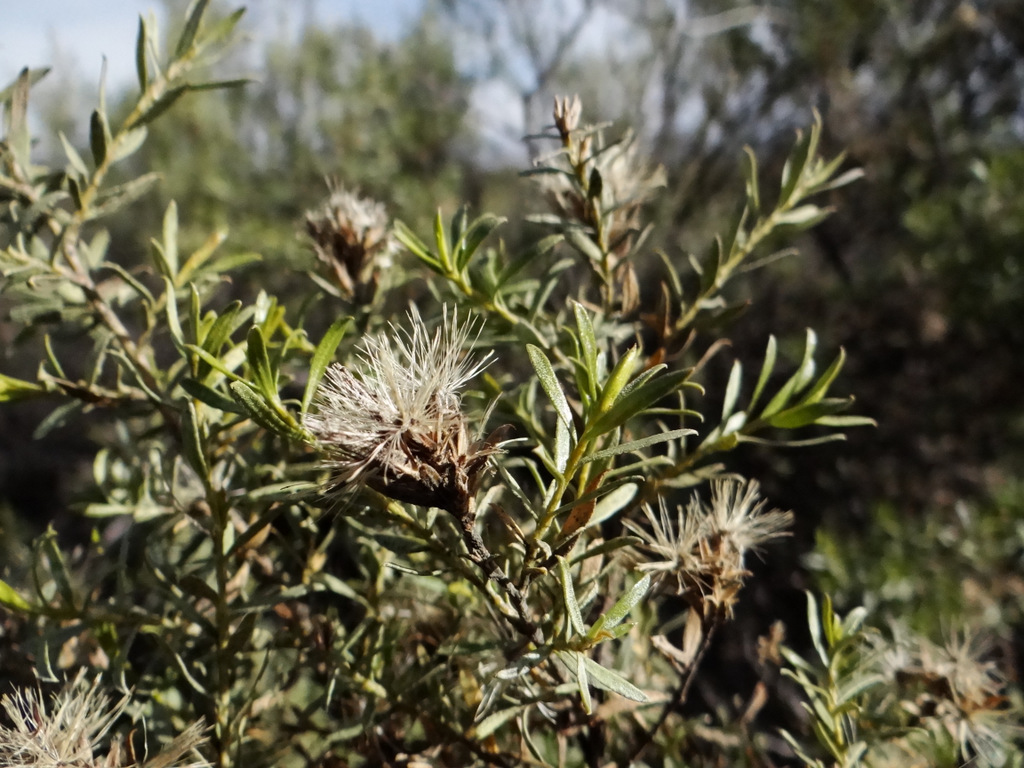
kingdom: Plantae
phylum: Tracheophyta
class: Magnoliopsida
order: Asterales
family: Asteraceae
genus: Gochnatia
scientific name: Gochnatia glutinosa
